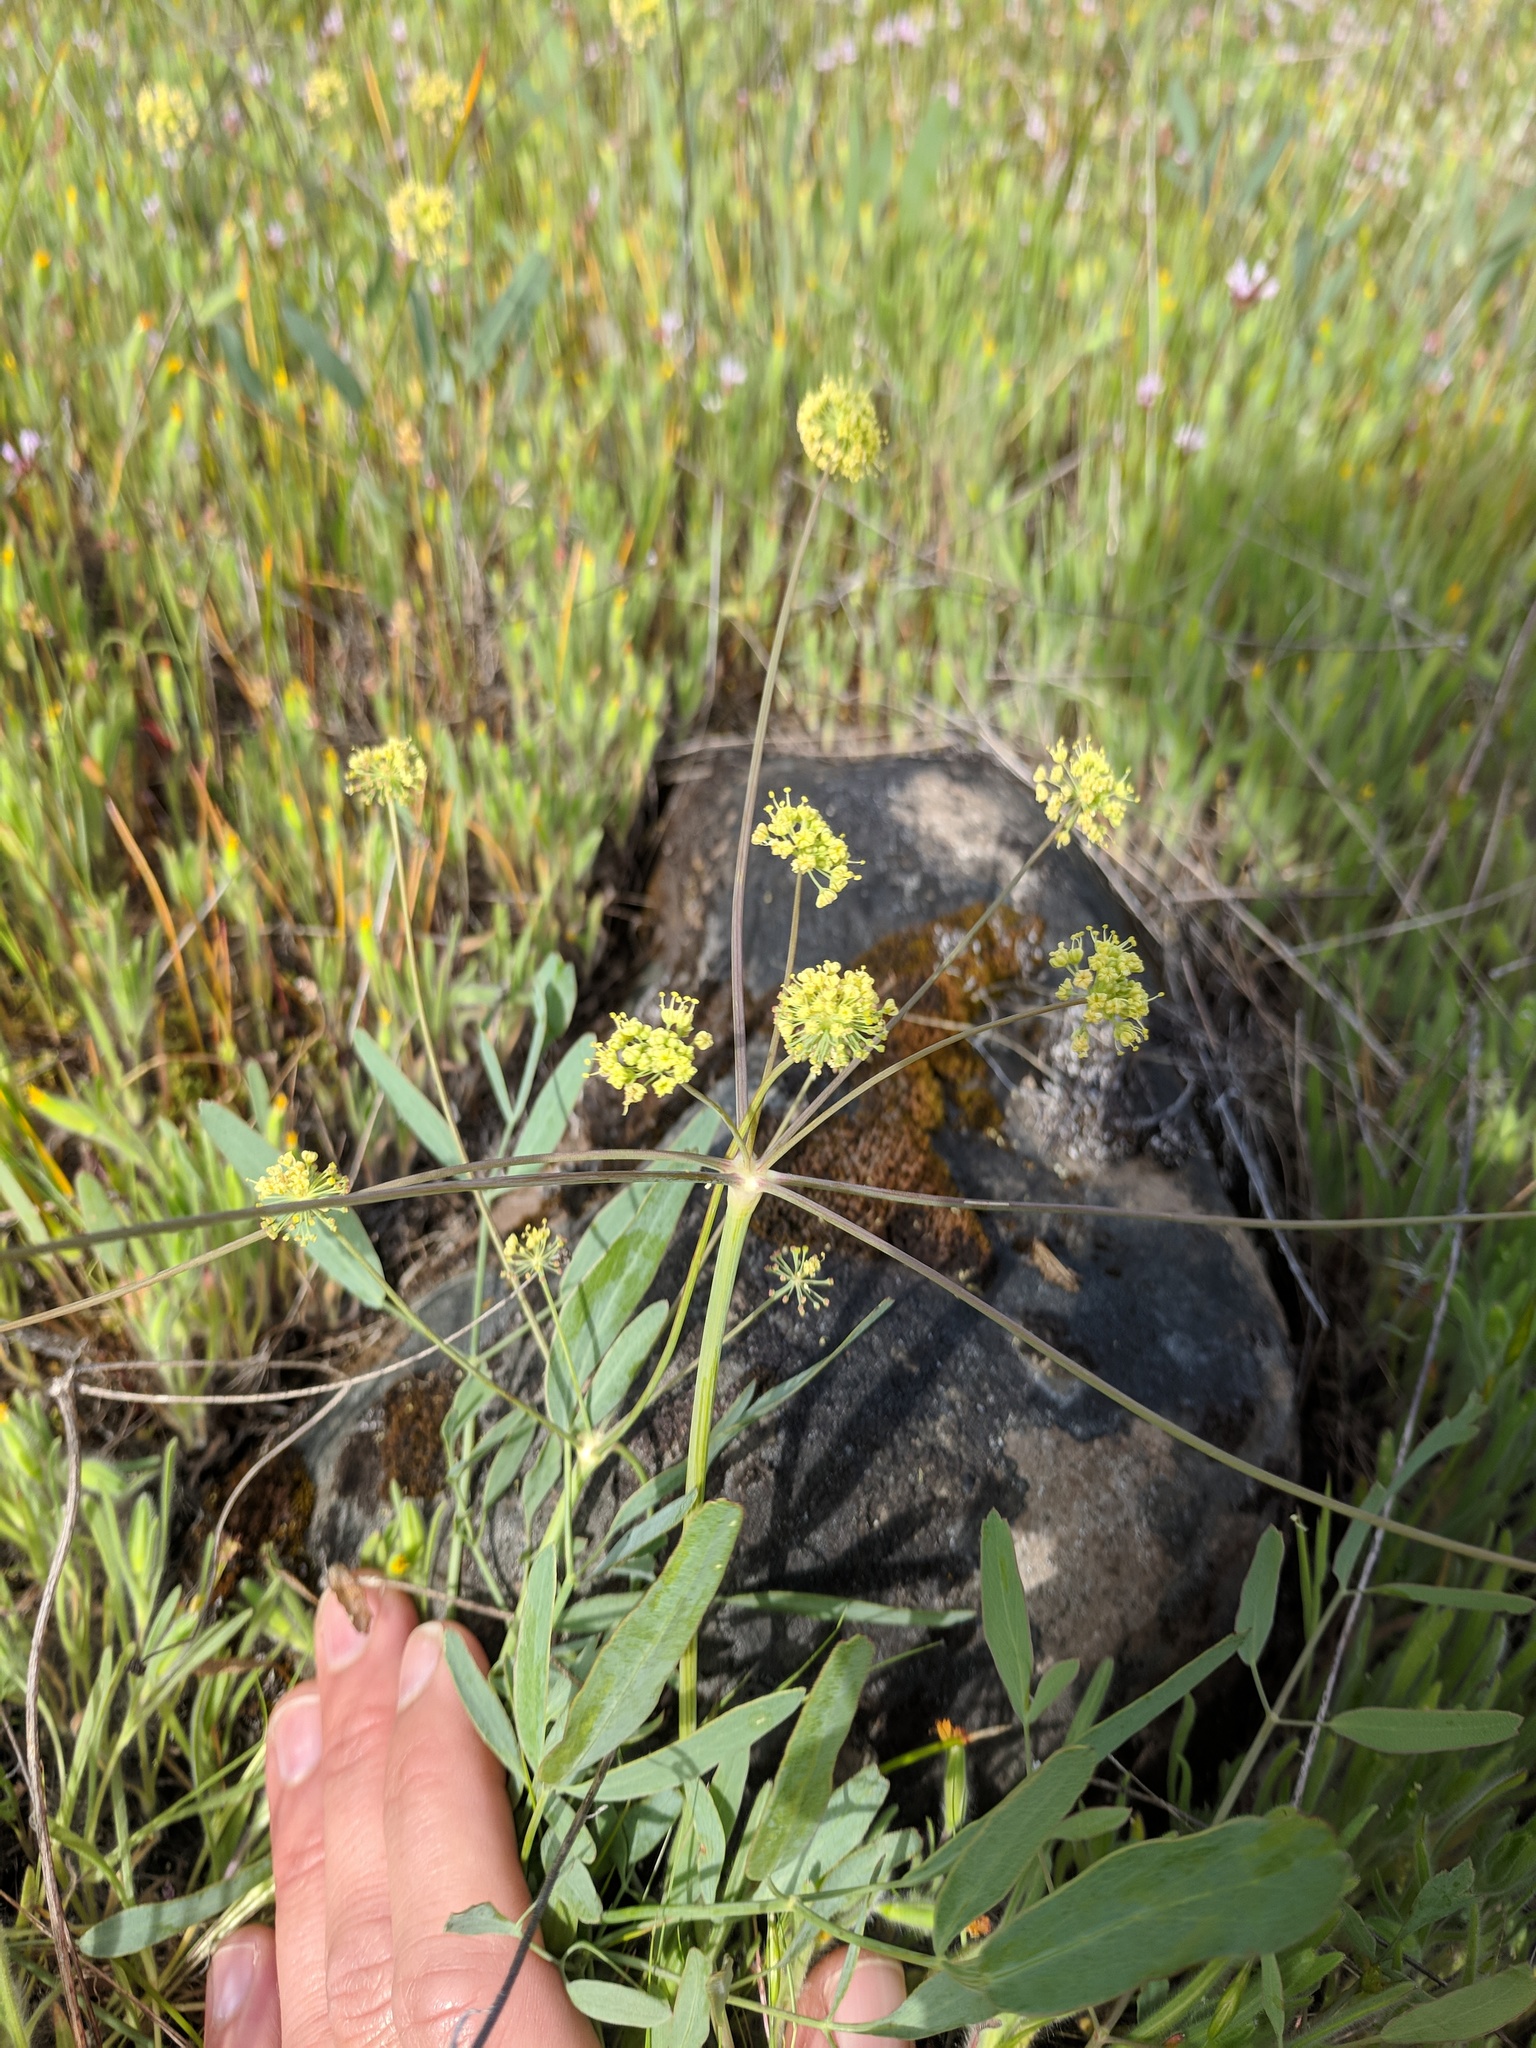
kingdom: Plantae
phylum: Tracheophyta
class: Magnoliopsida
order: Apiales
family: Apiaceae
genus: Lomatium
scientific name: Lomatium nudicaule
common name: Pestle lomatium
